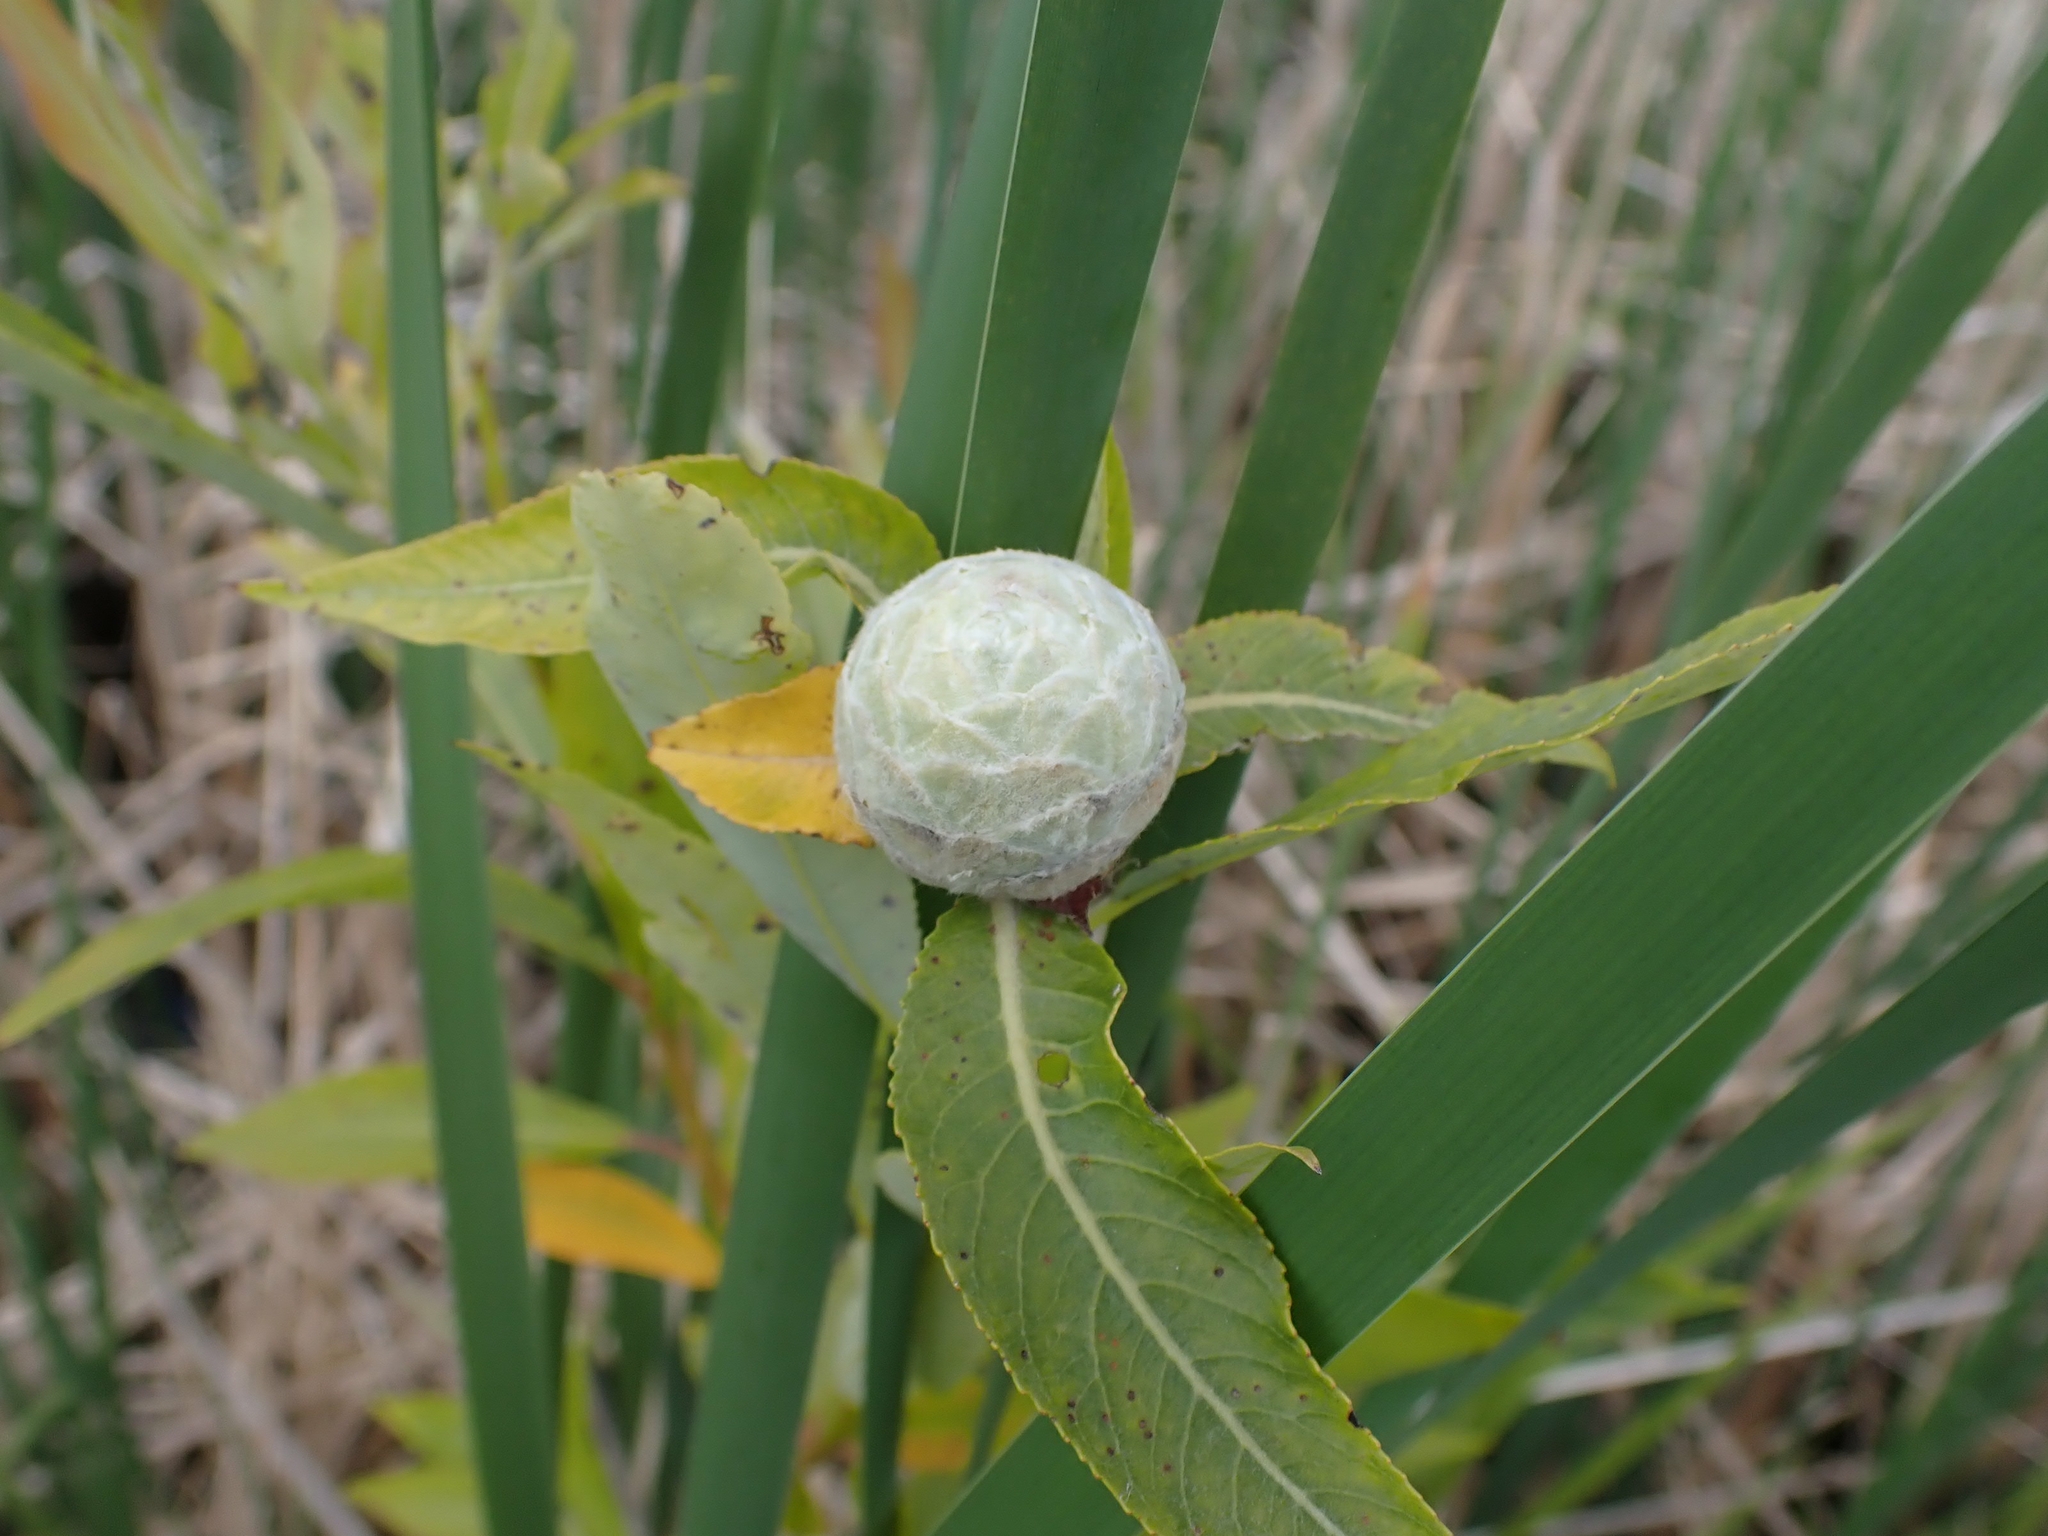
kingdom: Animalia
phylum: Arthropoda
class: Insecta
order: Diptera
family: Cecidomyiidae
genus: Rabdophaga
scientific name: Rabdophaga strobiloides
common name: Willow pinecone gall midge
